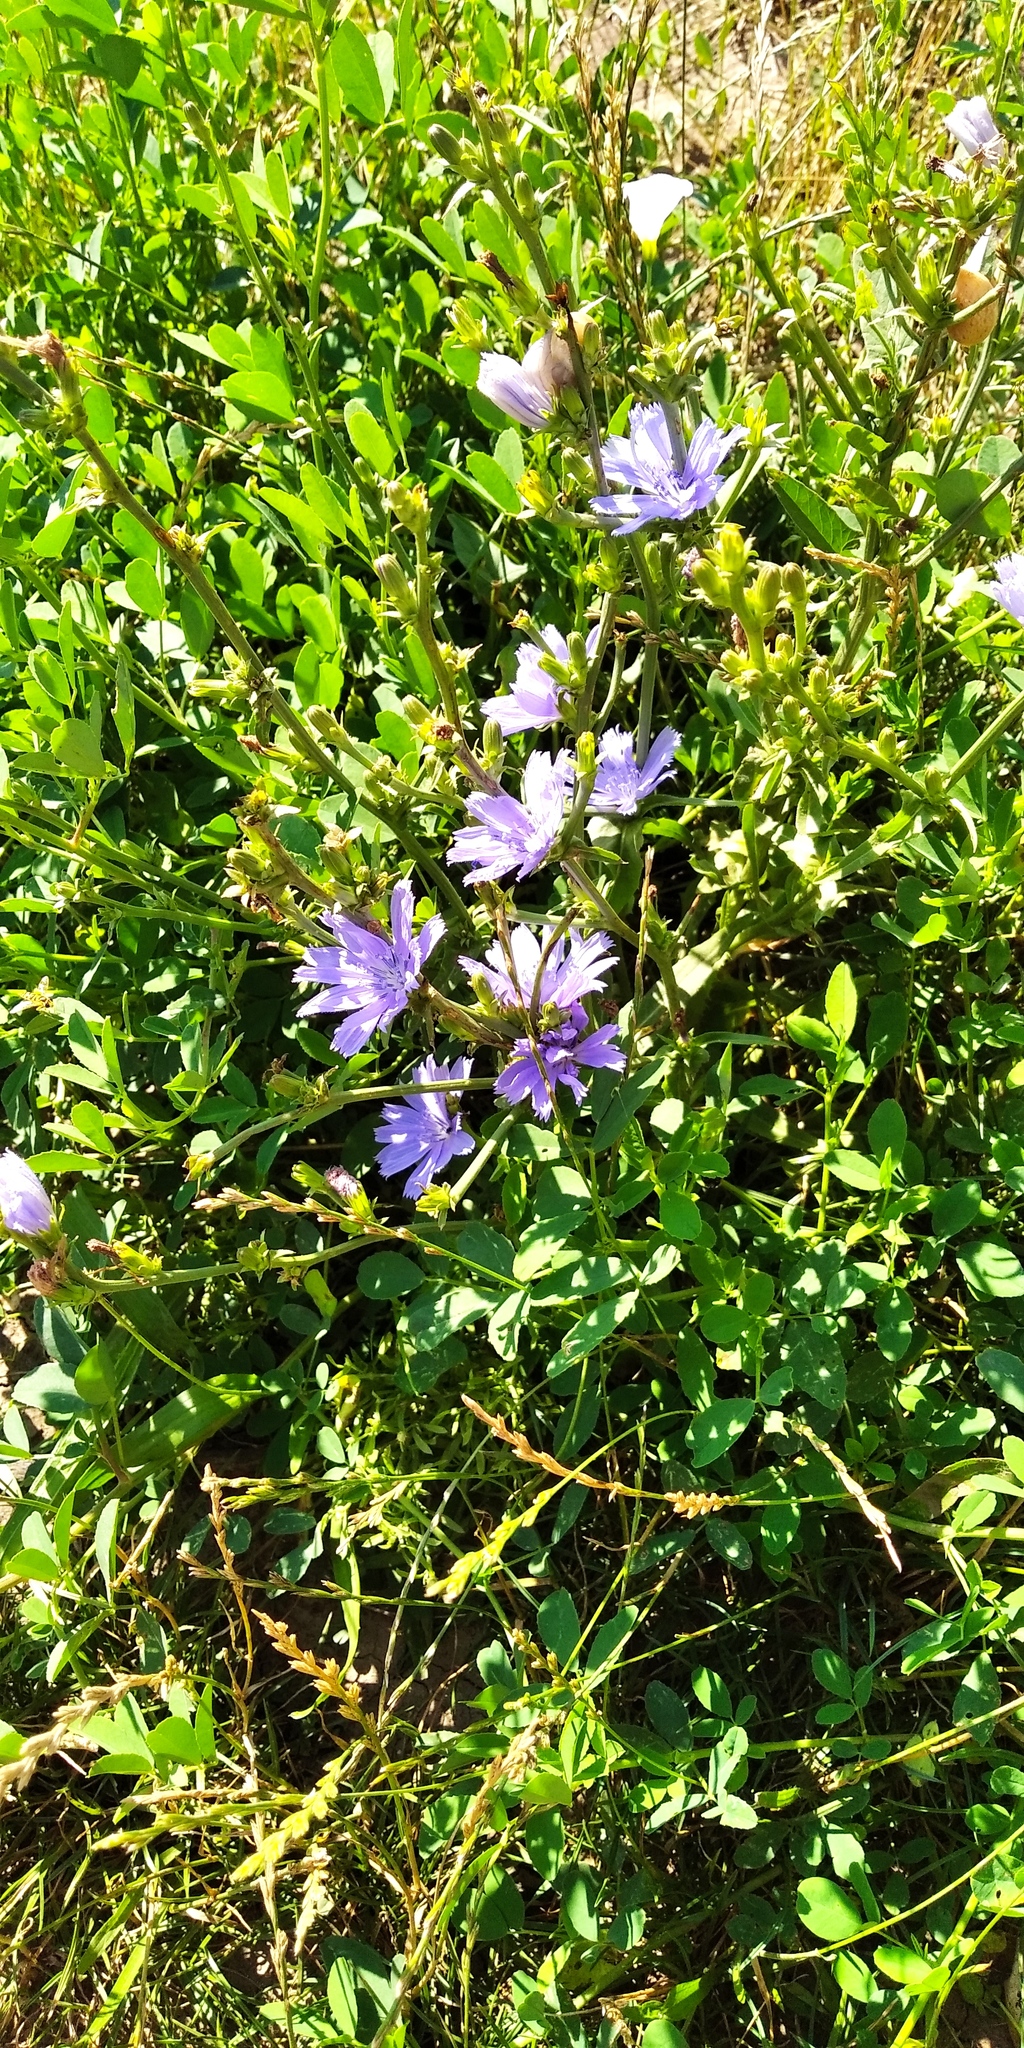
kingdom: Plantae
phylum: Tracheophyta
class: Magnoliopsida
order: Asterales
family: Asteraceae
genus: Cichorium
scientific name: Cichorium intybus
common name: Chicory
